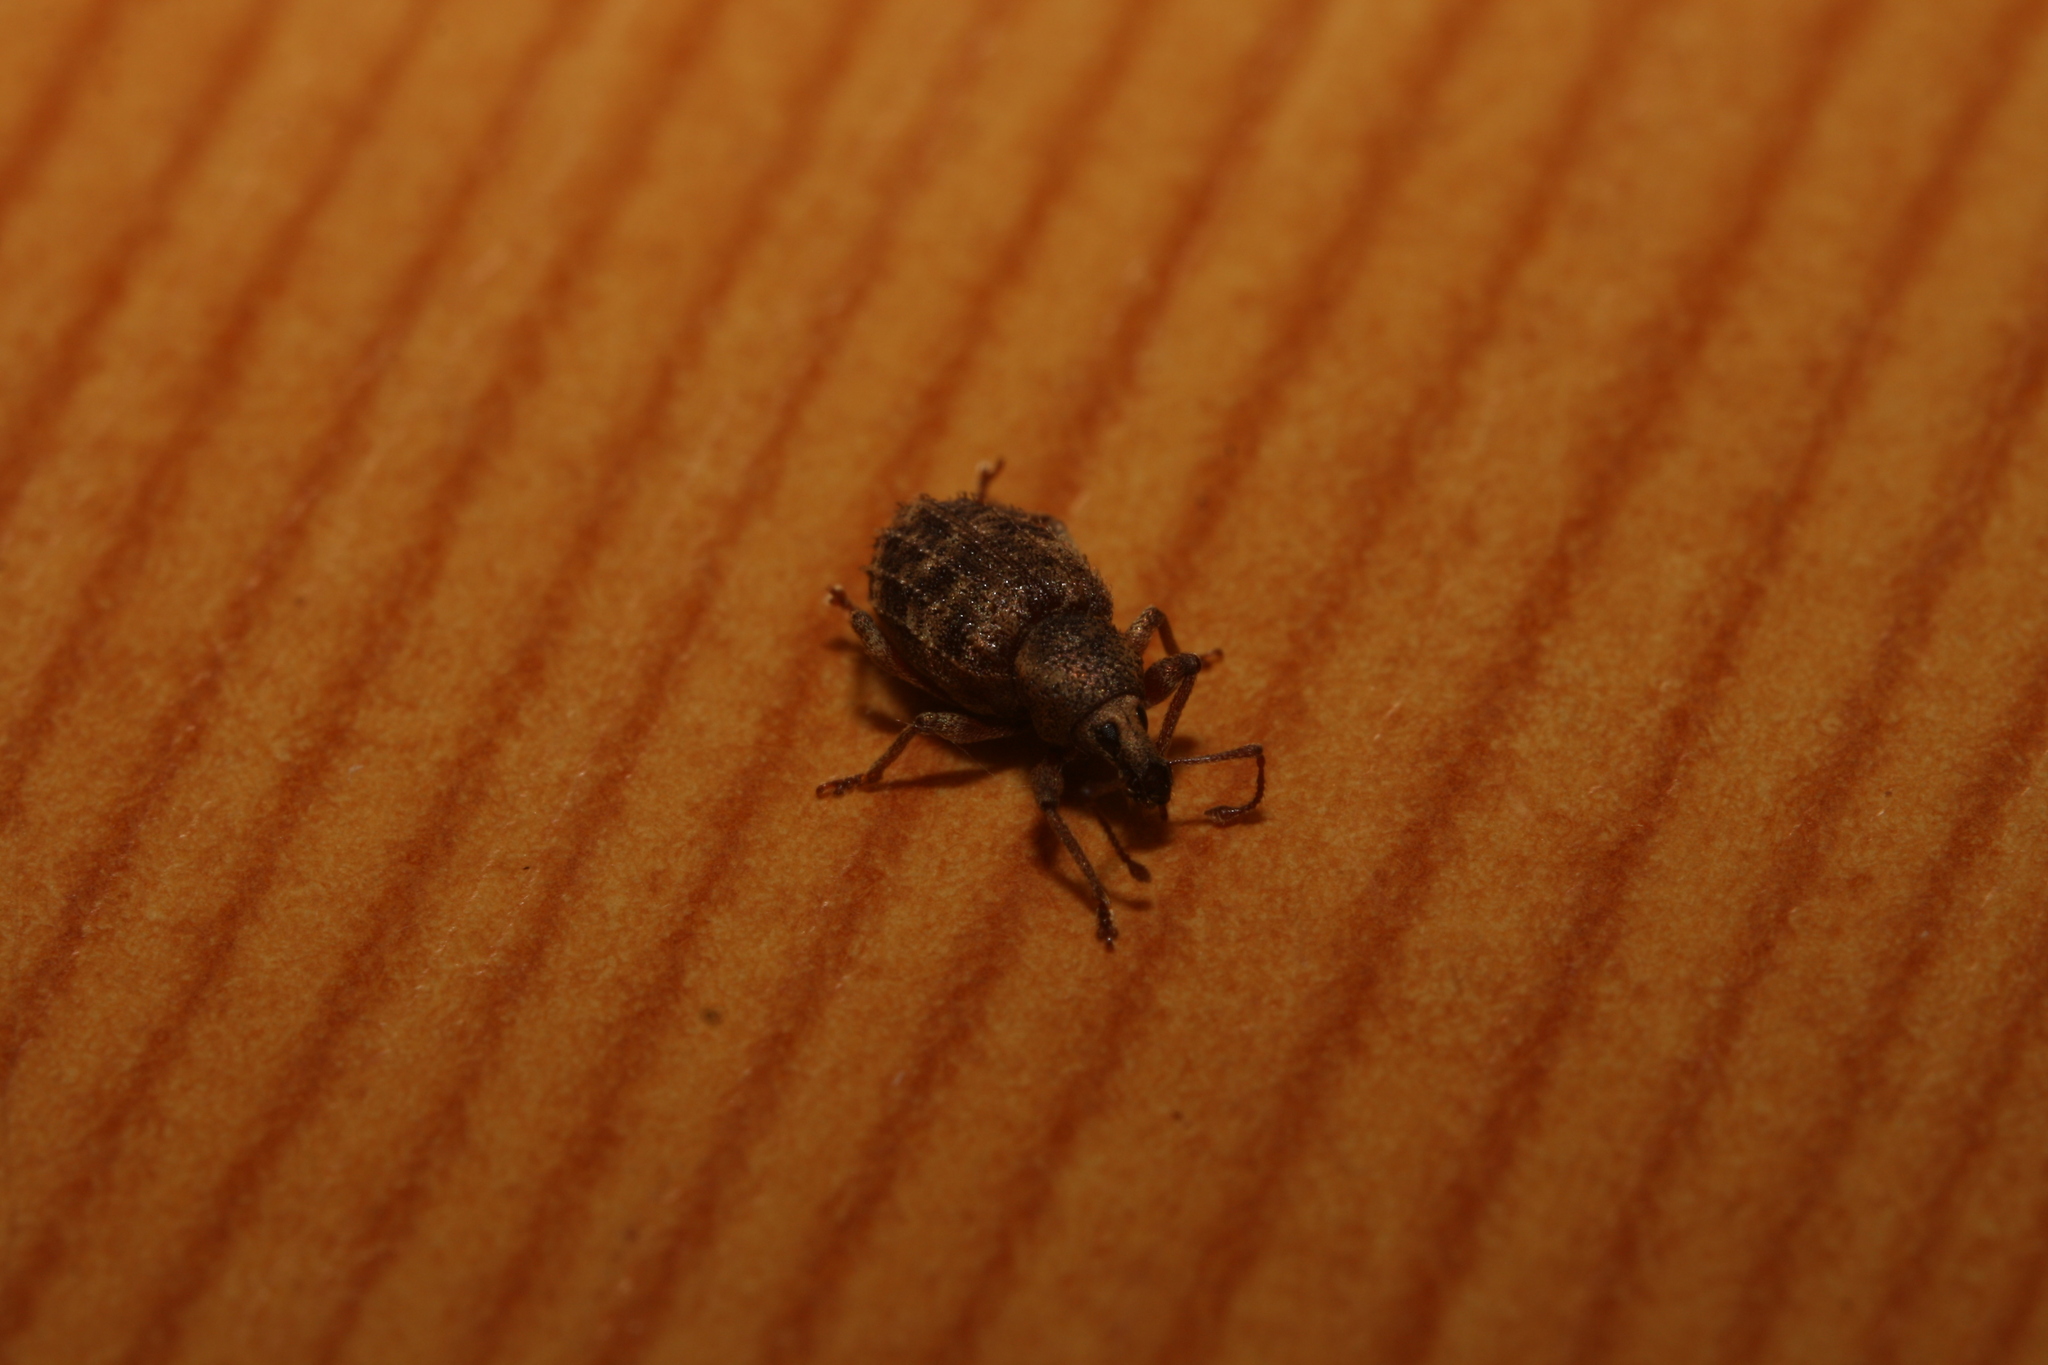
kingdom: Animalia
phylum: Arthropoda
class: Insecta
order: Coleoptera
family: Curculionidae
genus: Otiorhynchus
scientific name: Otiorhynchus carinatopunctatus
